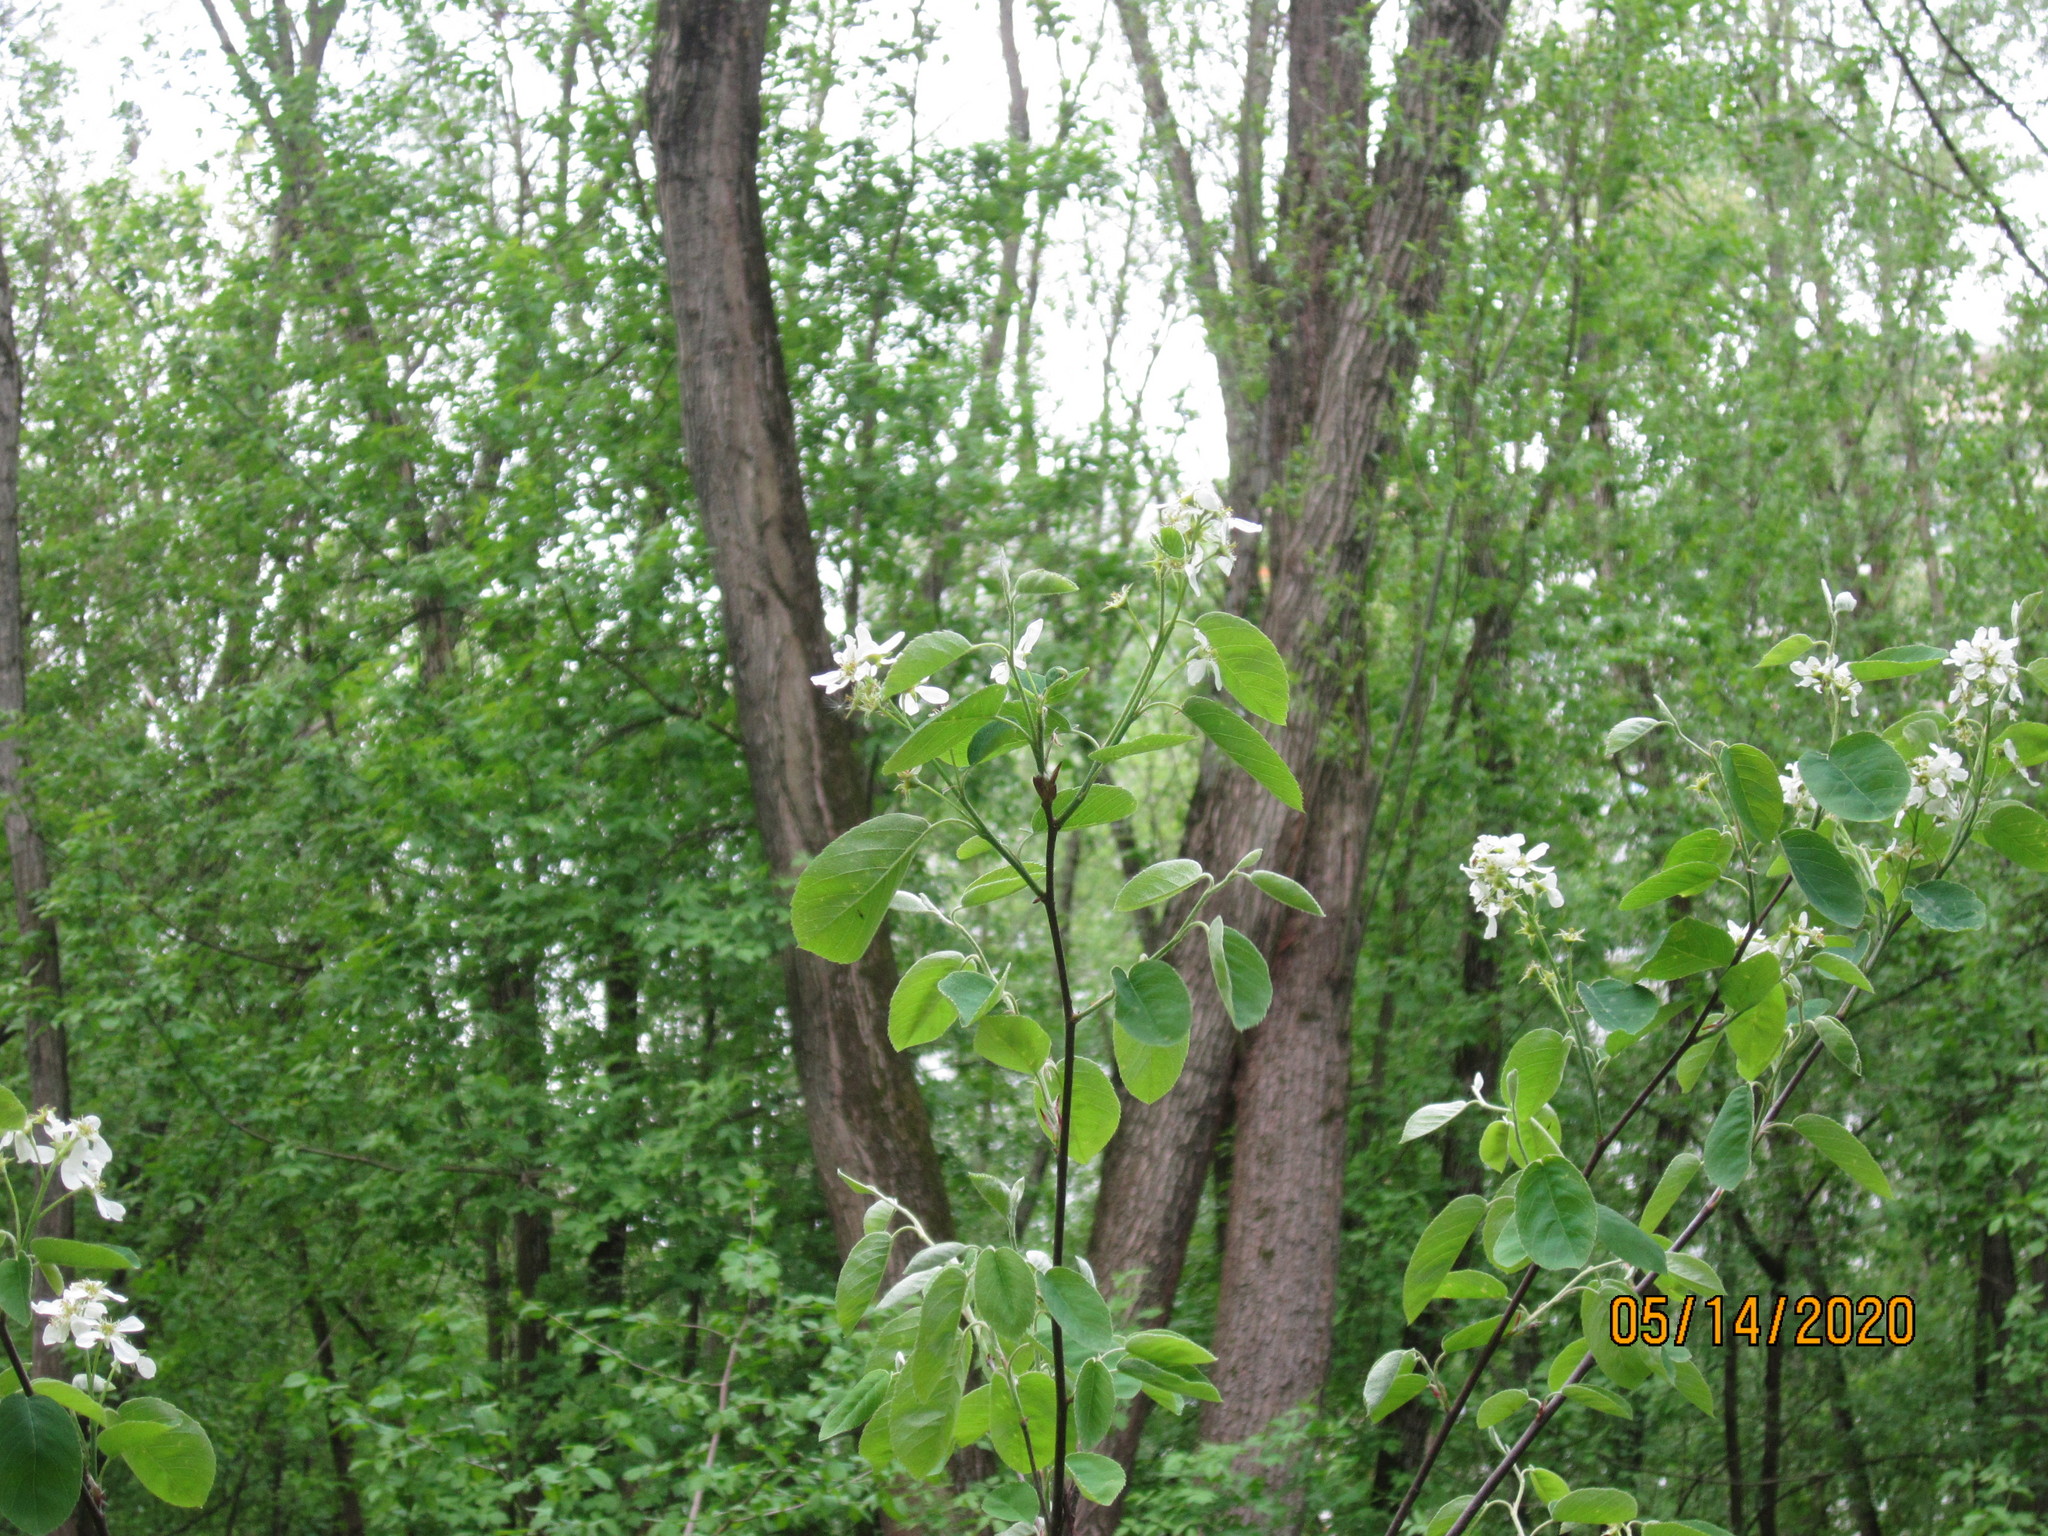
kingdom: Plantae
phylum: Tracheophyta
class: Magnoliopsida
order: Rosales
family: Rosaceae
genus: Amelanchier
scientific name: Amelanchier
